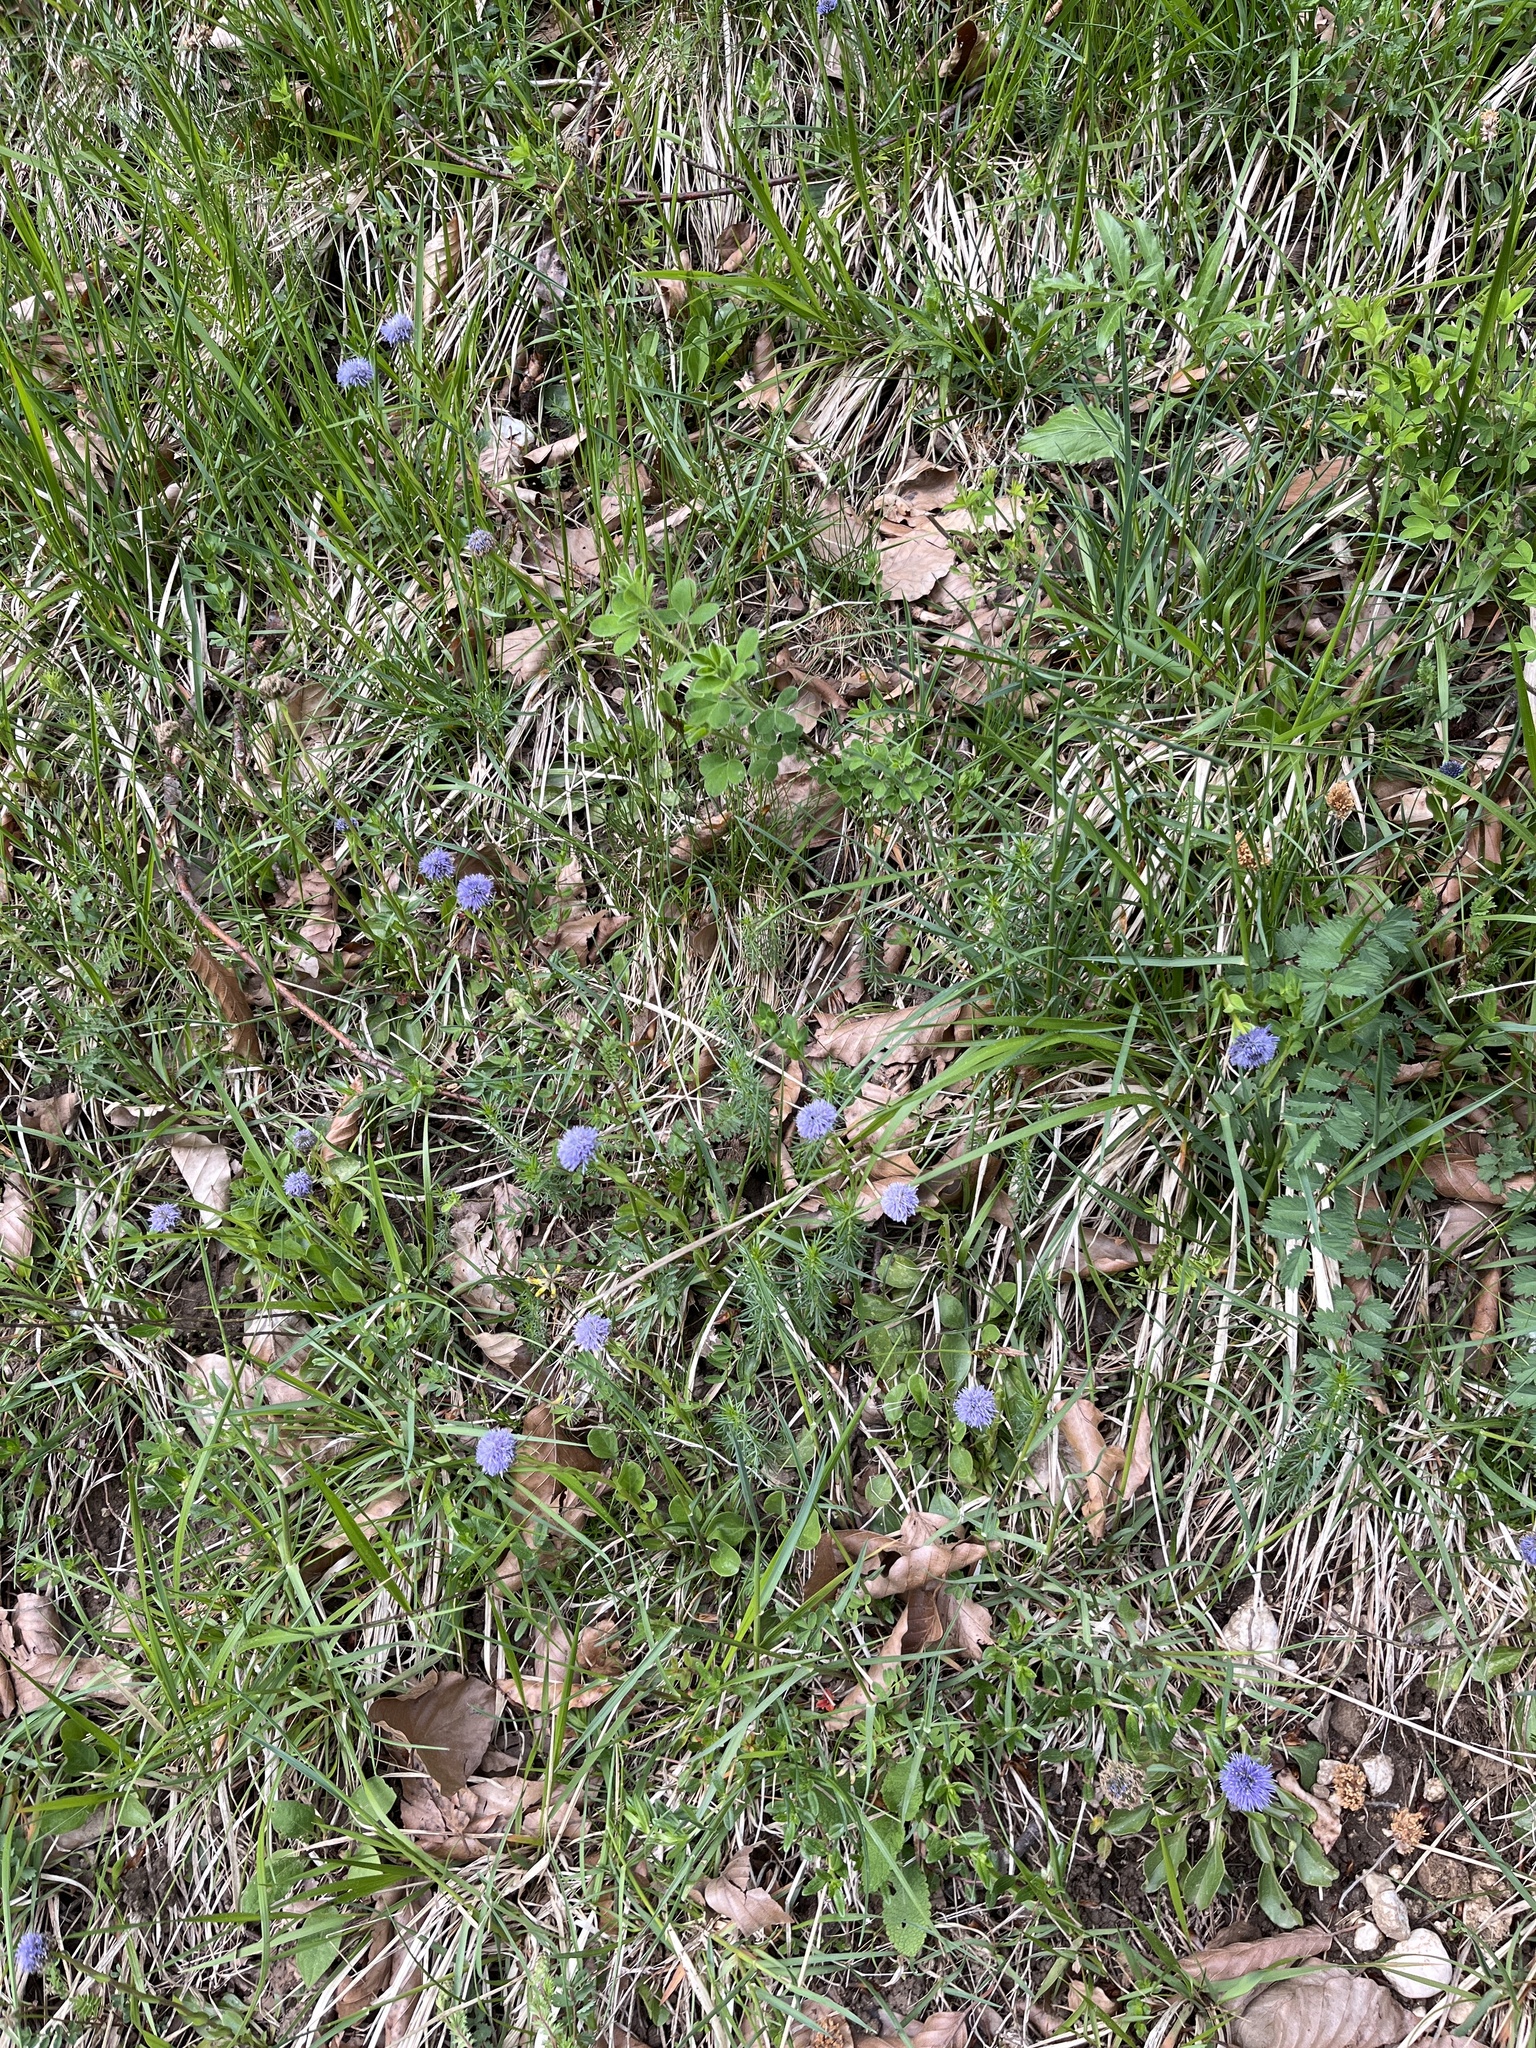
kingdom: Plantae
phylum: Tracheophyta
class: Magnoliopsida
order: Lamiales
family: Plantaginaceae
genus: Globularia
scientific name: Globularia bisnagarica
